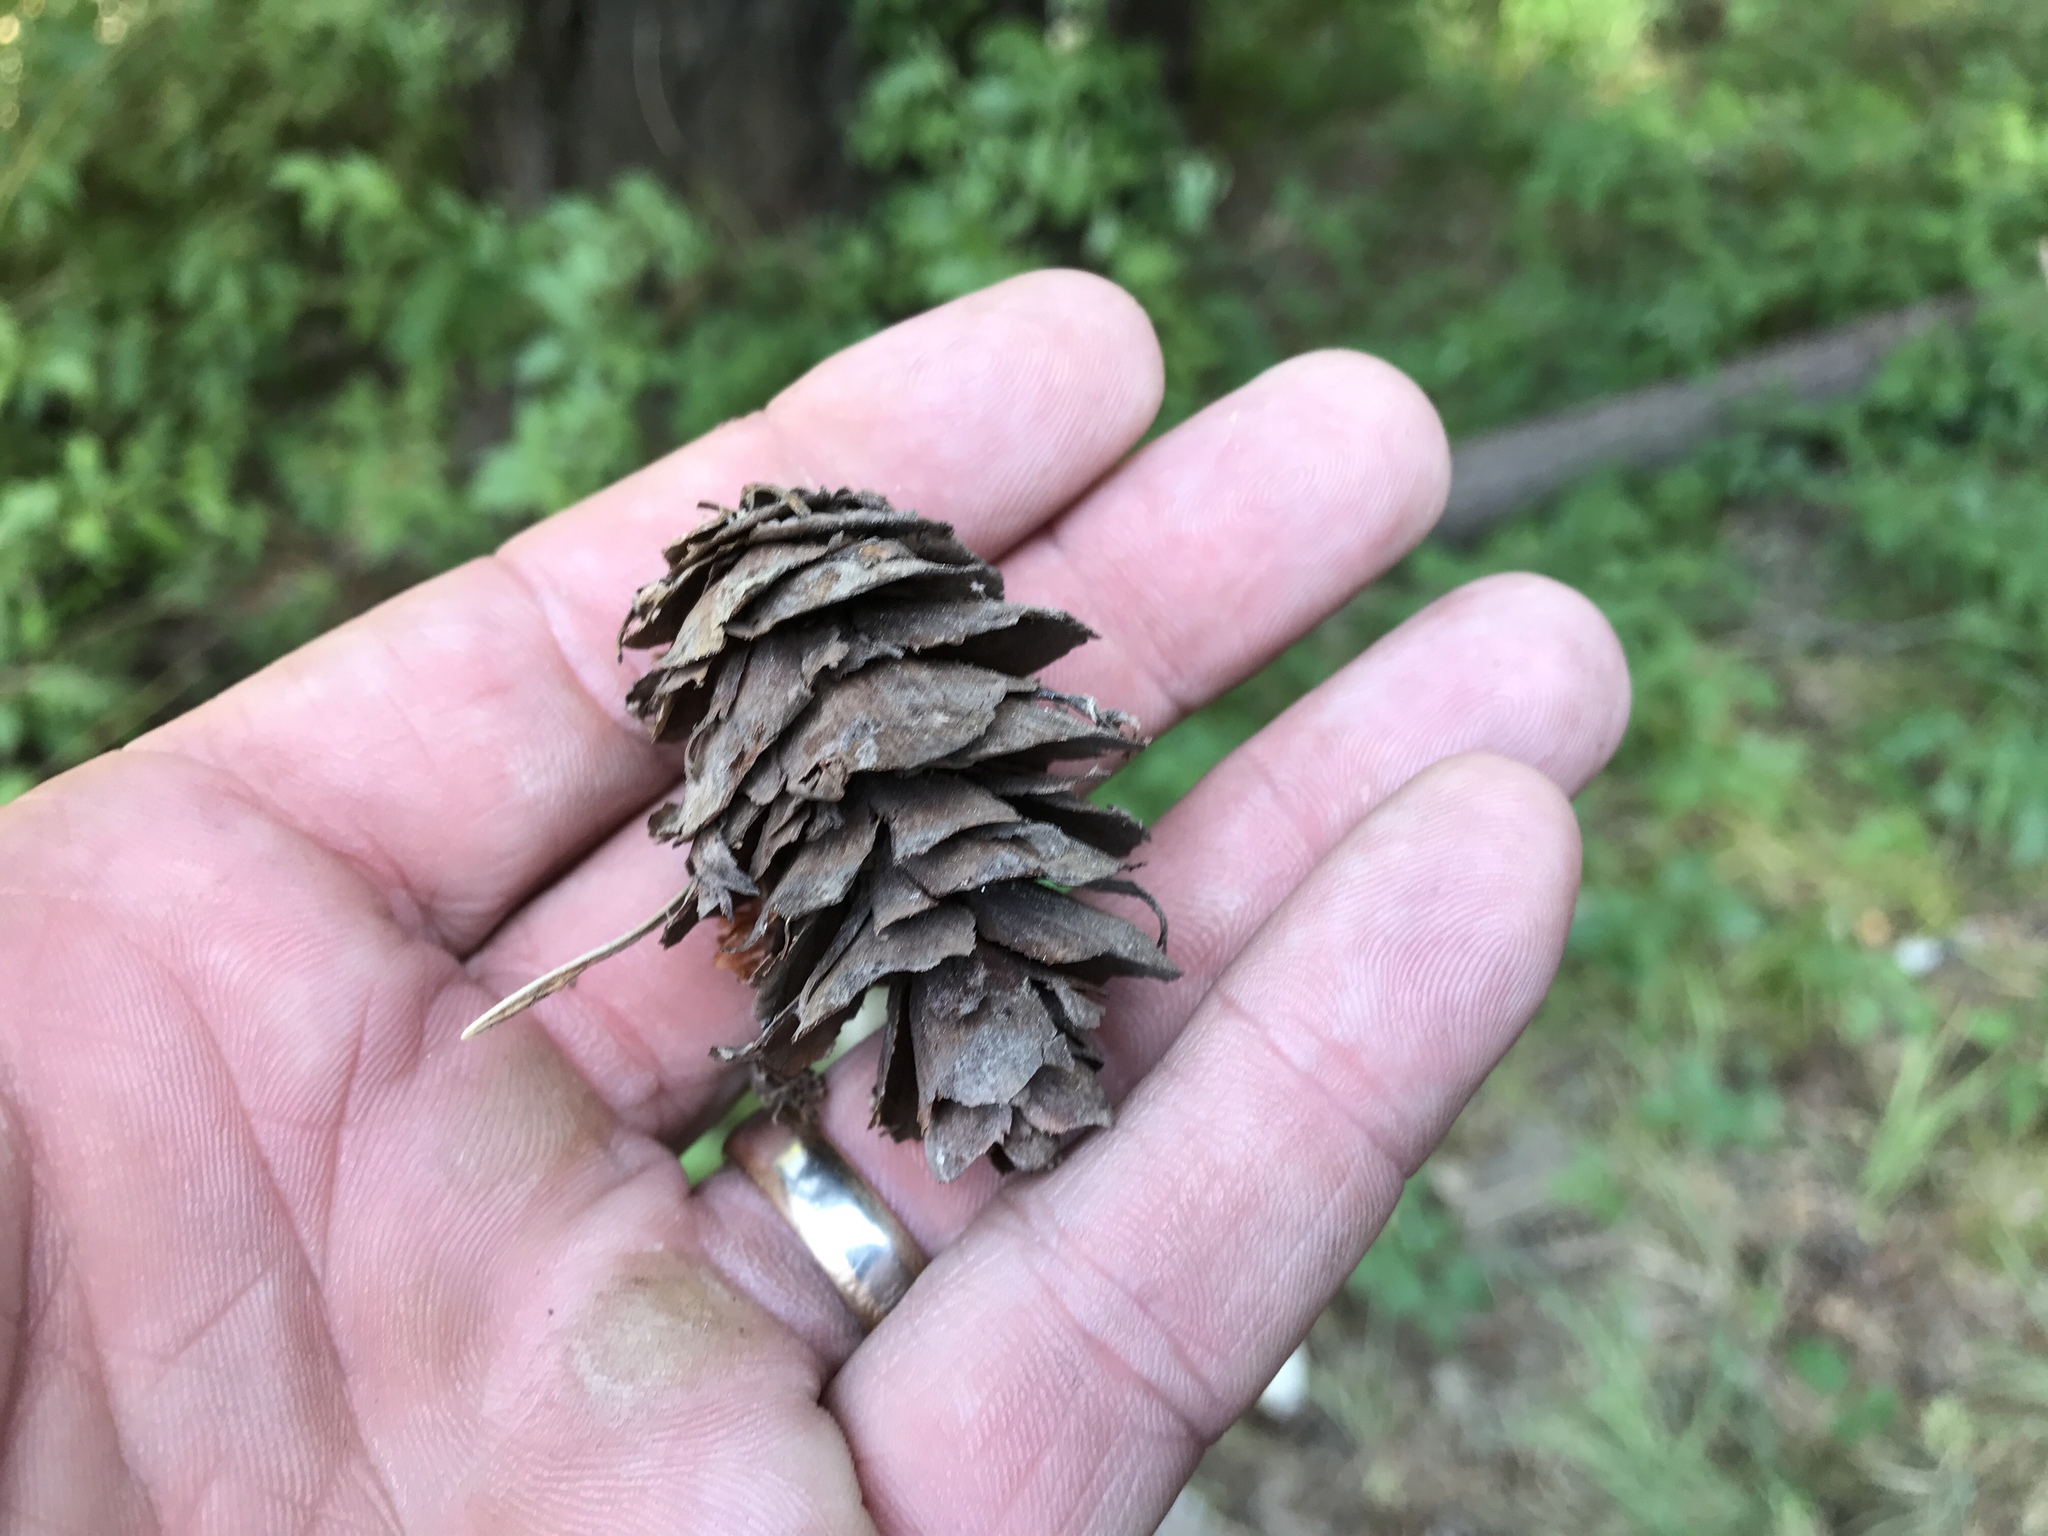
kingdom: Plantae
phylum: Tracheophyta
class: Pinopsida
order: Pinales
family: Pinaceae
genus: Pseudotsuga
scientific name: Pseudotsuga menziesii
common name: Douglas fir
